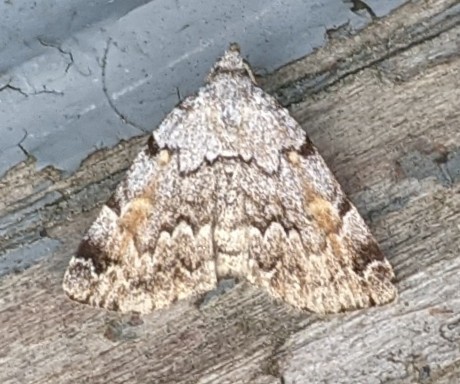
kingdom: Animalia
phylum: Arthropoda
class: Insecta
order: Lepidoptera
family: Erebidae
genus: Idia
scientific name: Idia americalis
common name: American idia moth
